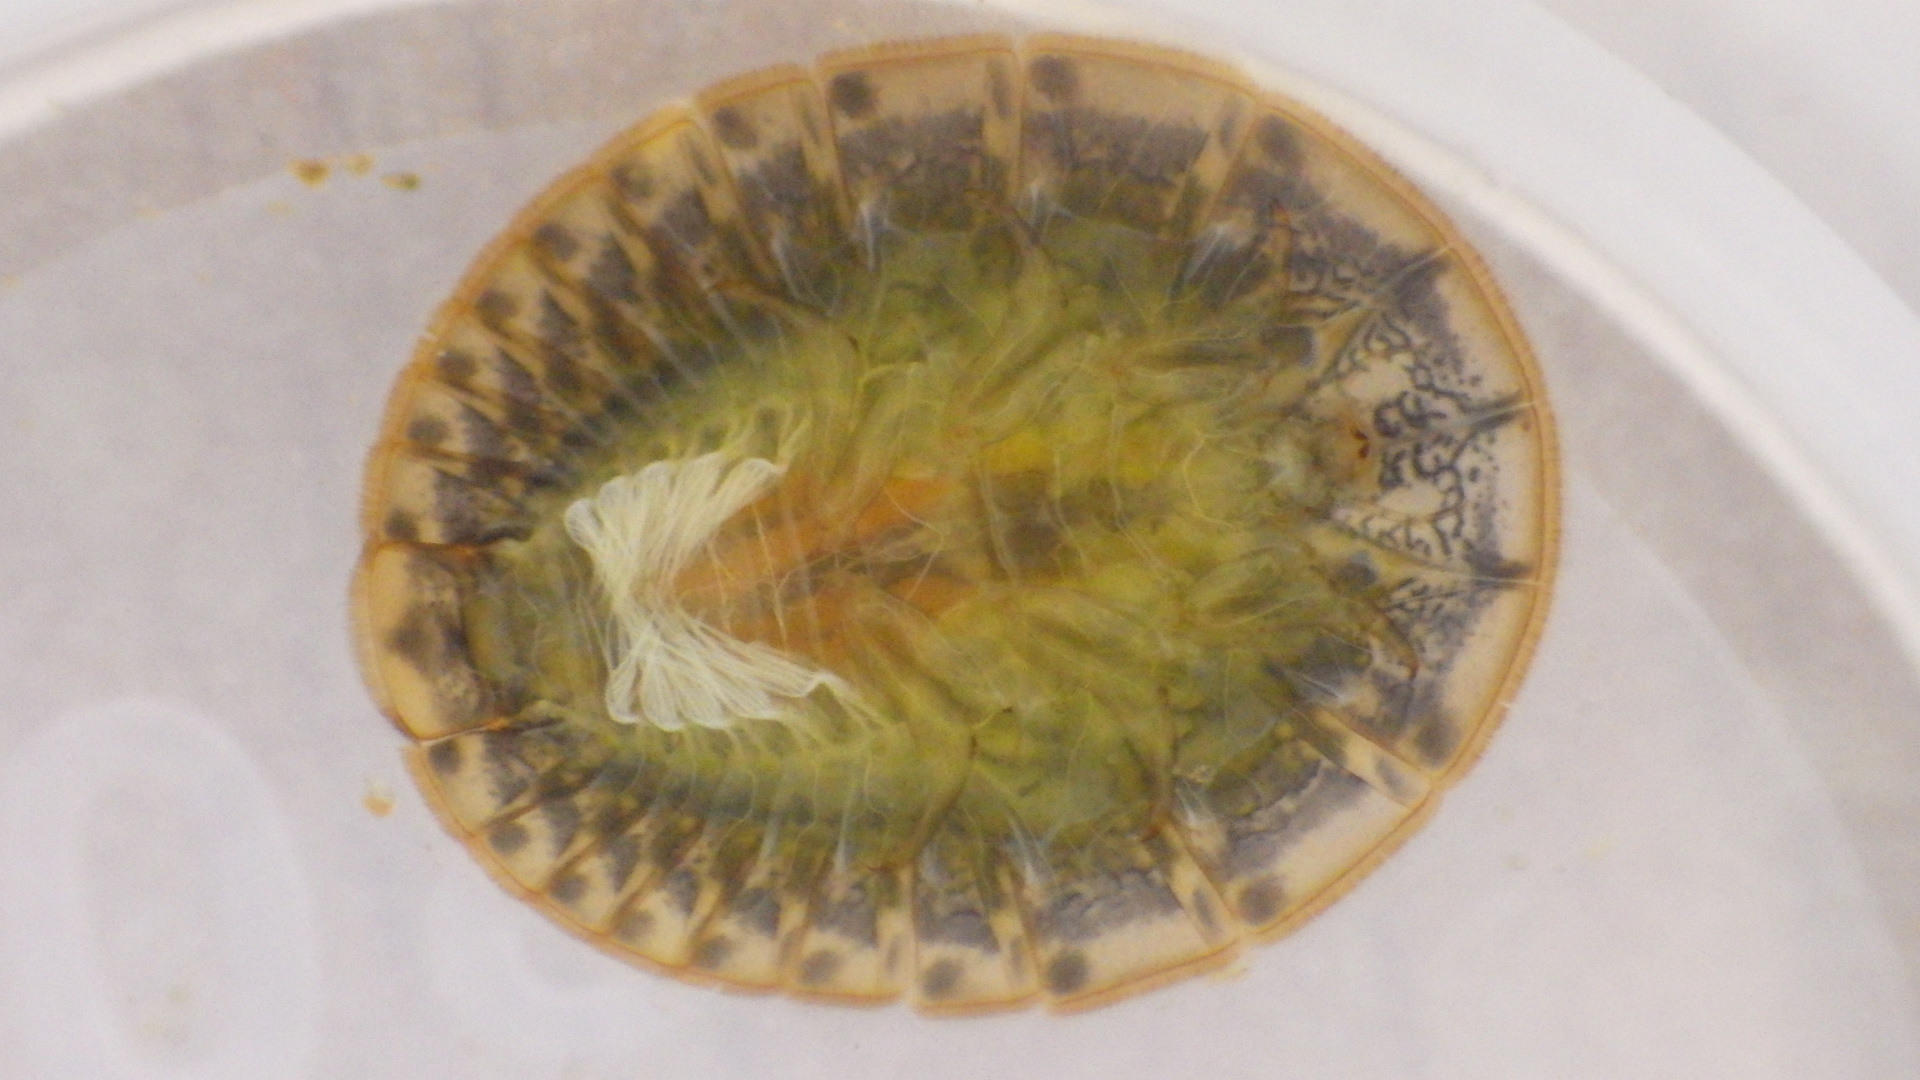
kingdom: Animalia
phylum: Arthropoda
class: Insecta
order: Coleoptera
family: Psephenidae
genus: Psephenus
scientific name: Psephenus herricki
